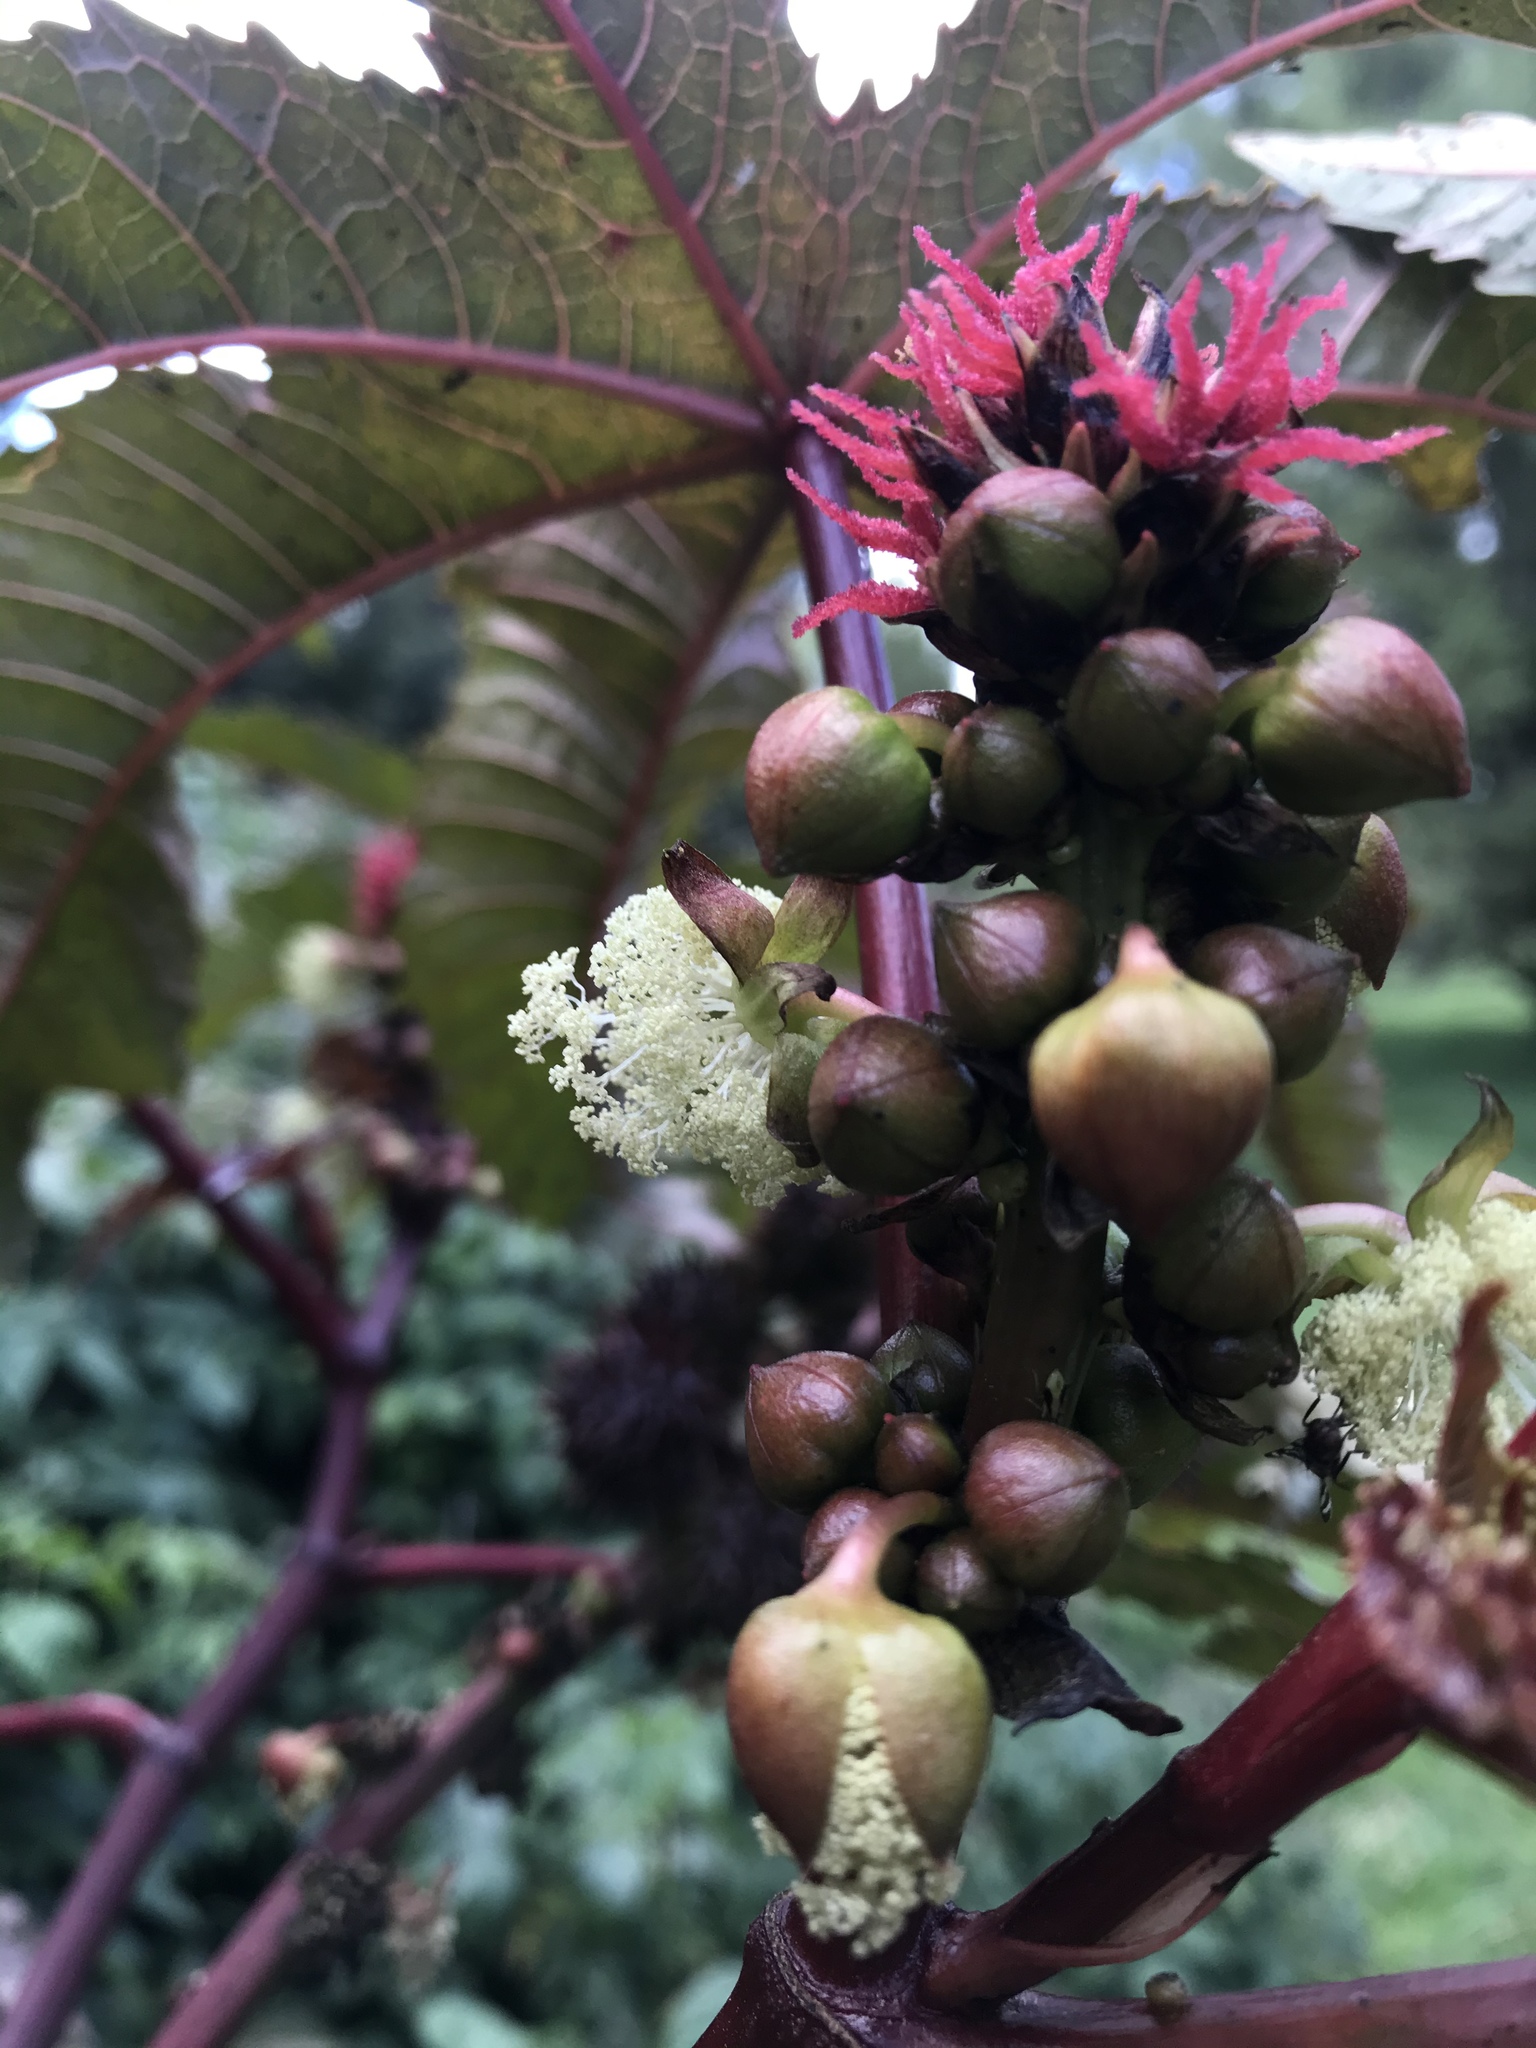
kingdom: Plantae
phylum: Tracheophyta
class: Magnoliopsida
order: Malpighiales
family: Euphorbiaceae
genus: Ricinus
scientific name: Ricinus communis
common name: Castor-oil-plant
